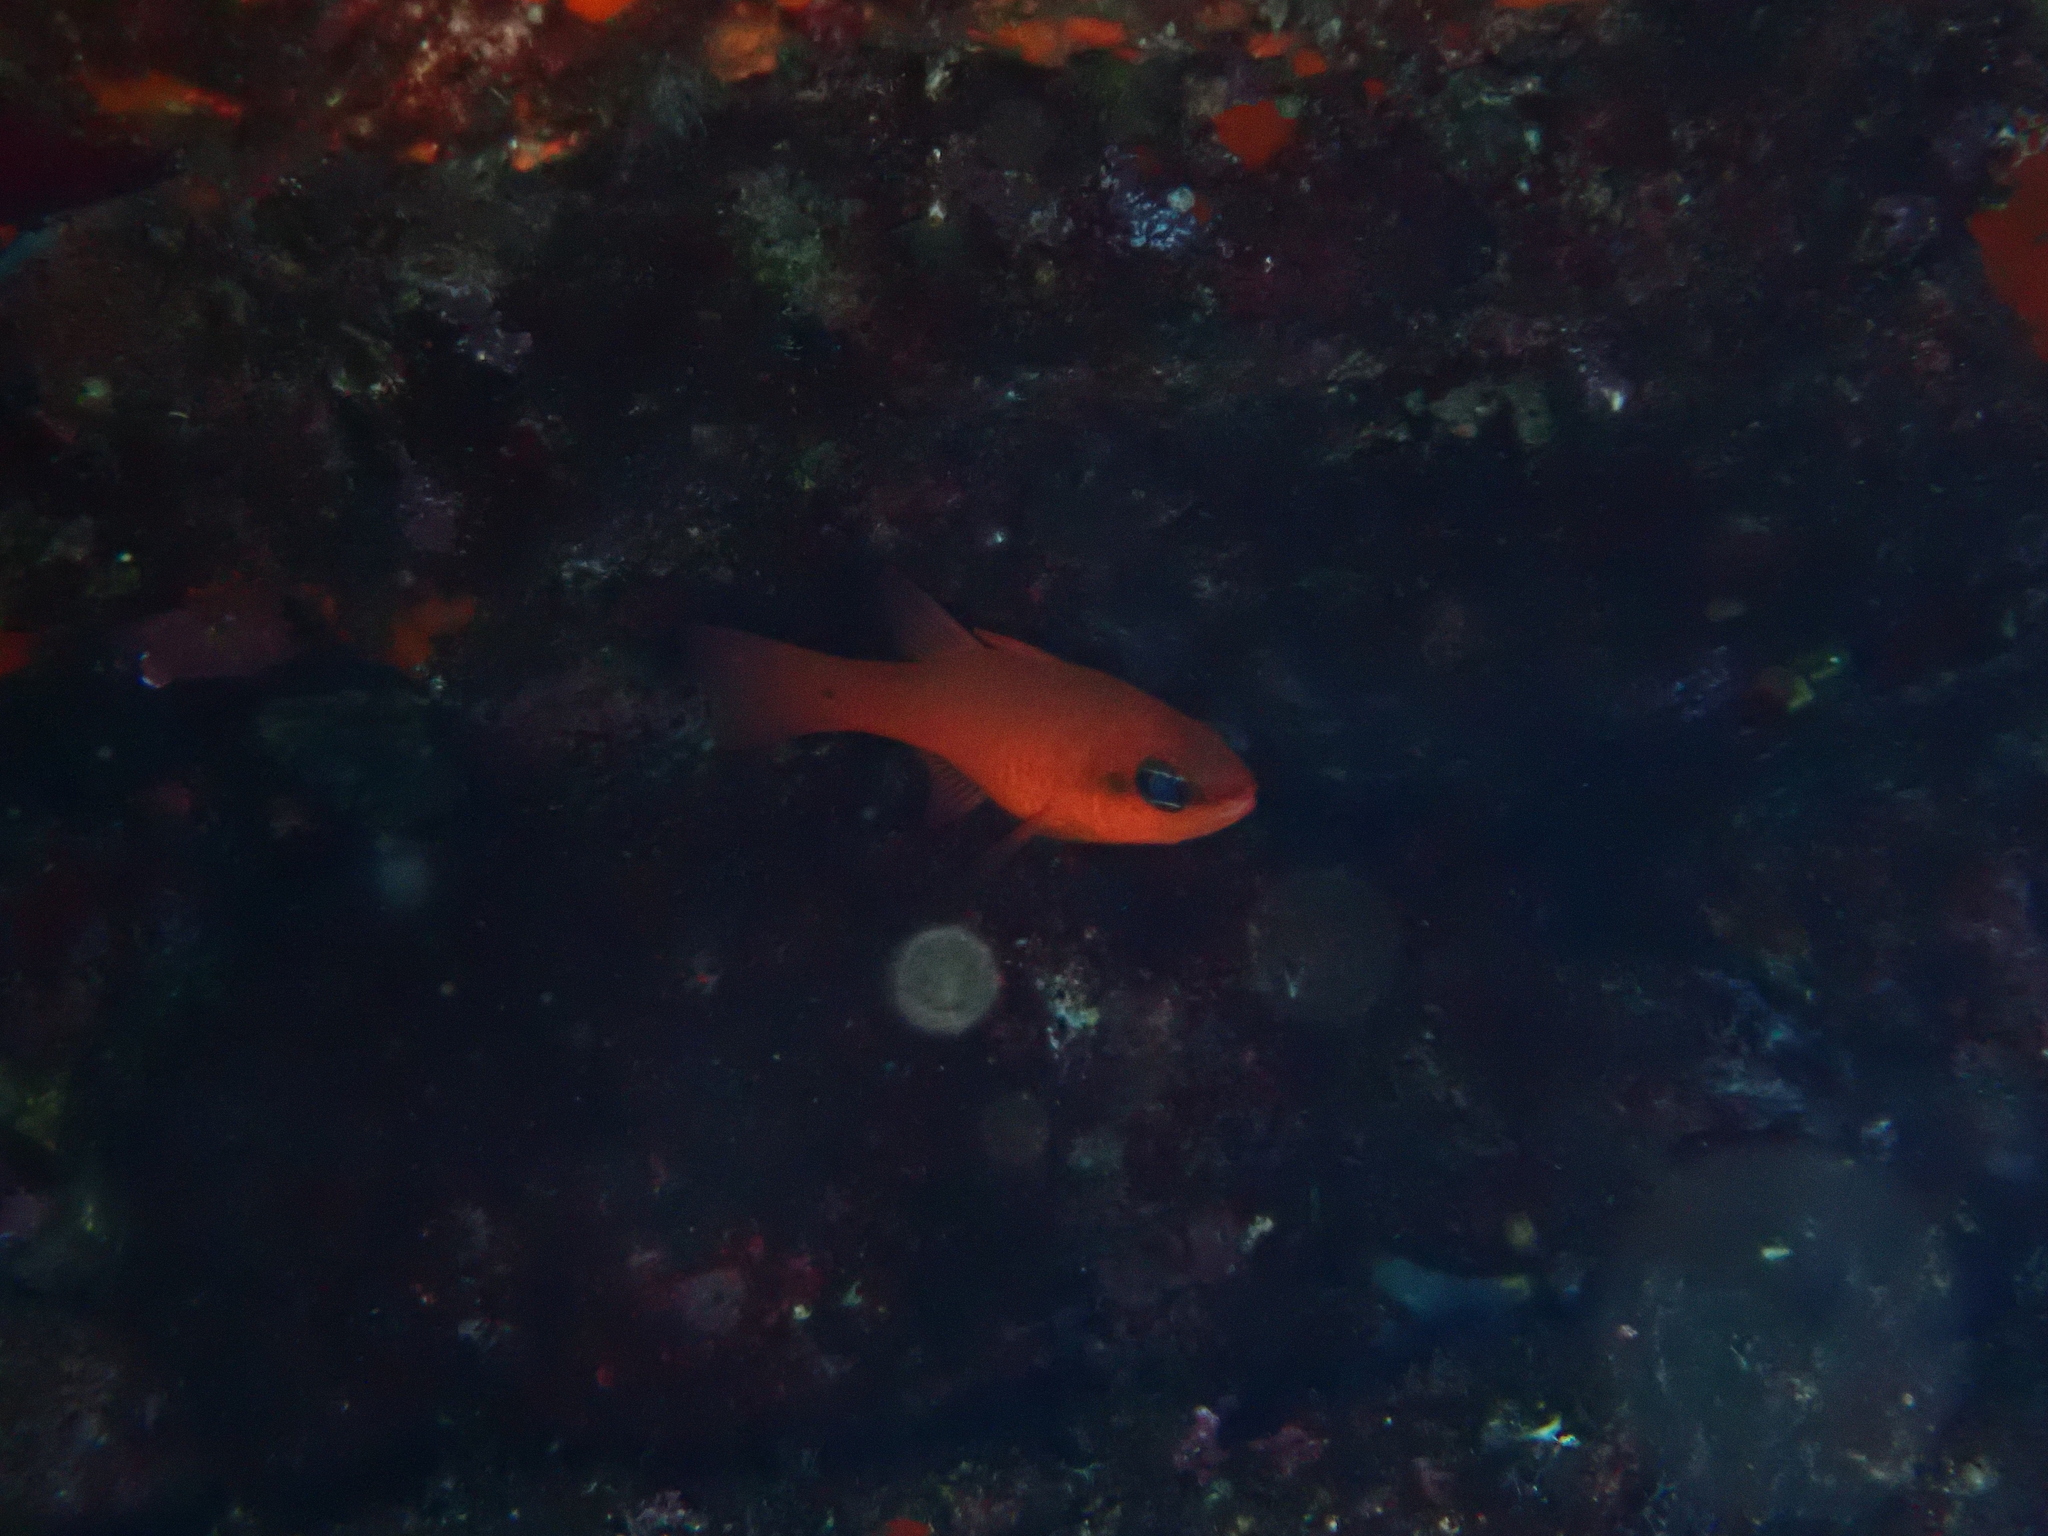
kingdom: Animalia
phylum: Chordata
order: Perciformes
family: Apogonidae
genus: Apogon
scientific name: Apogon imberbis
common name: Cardinal fish
